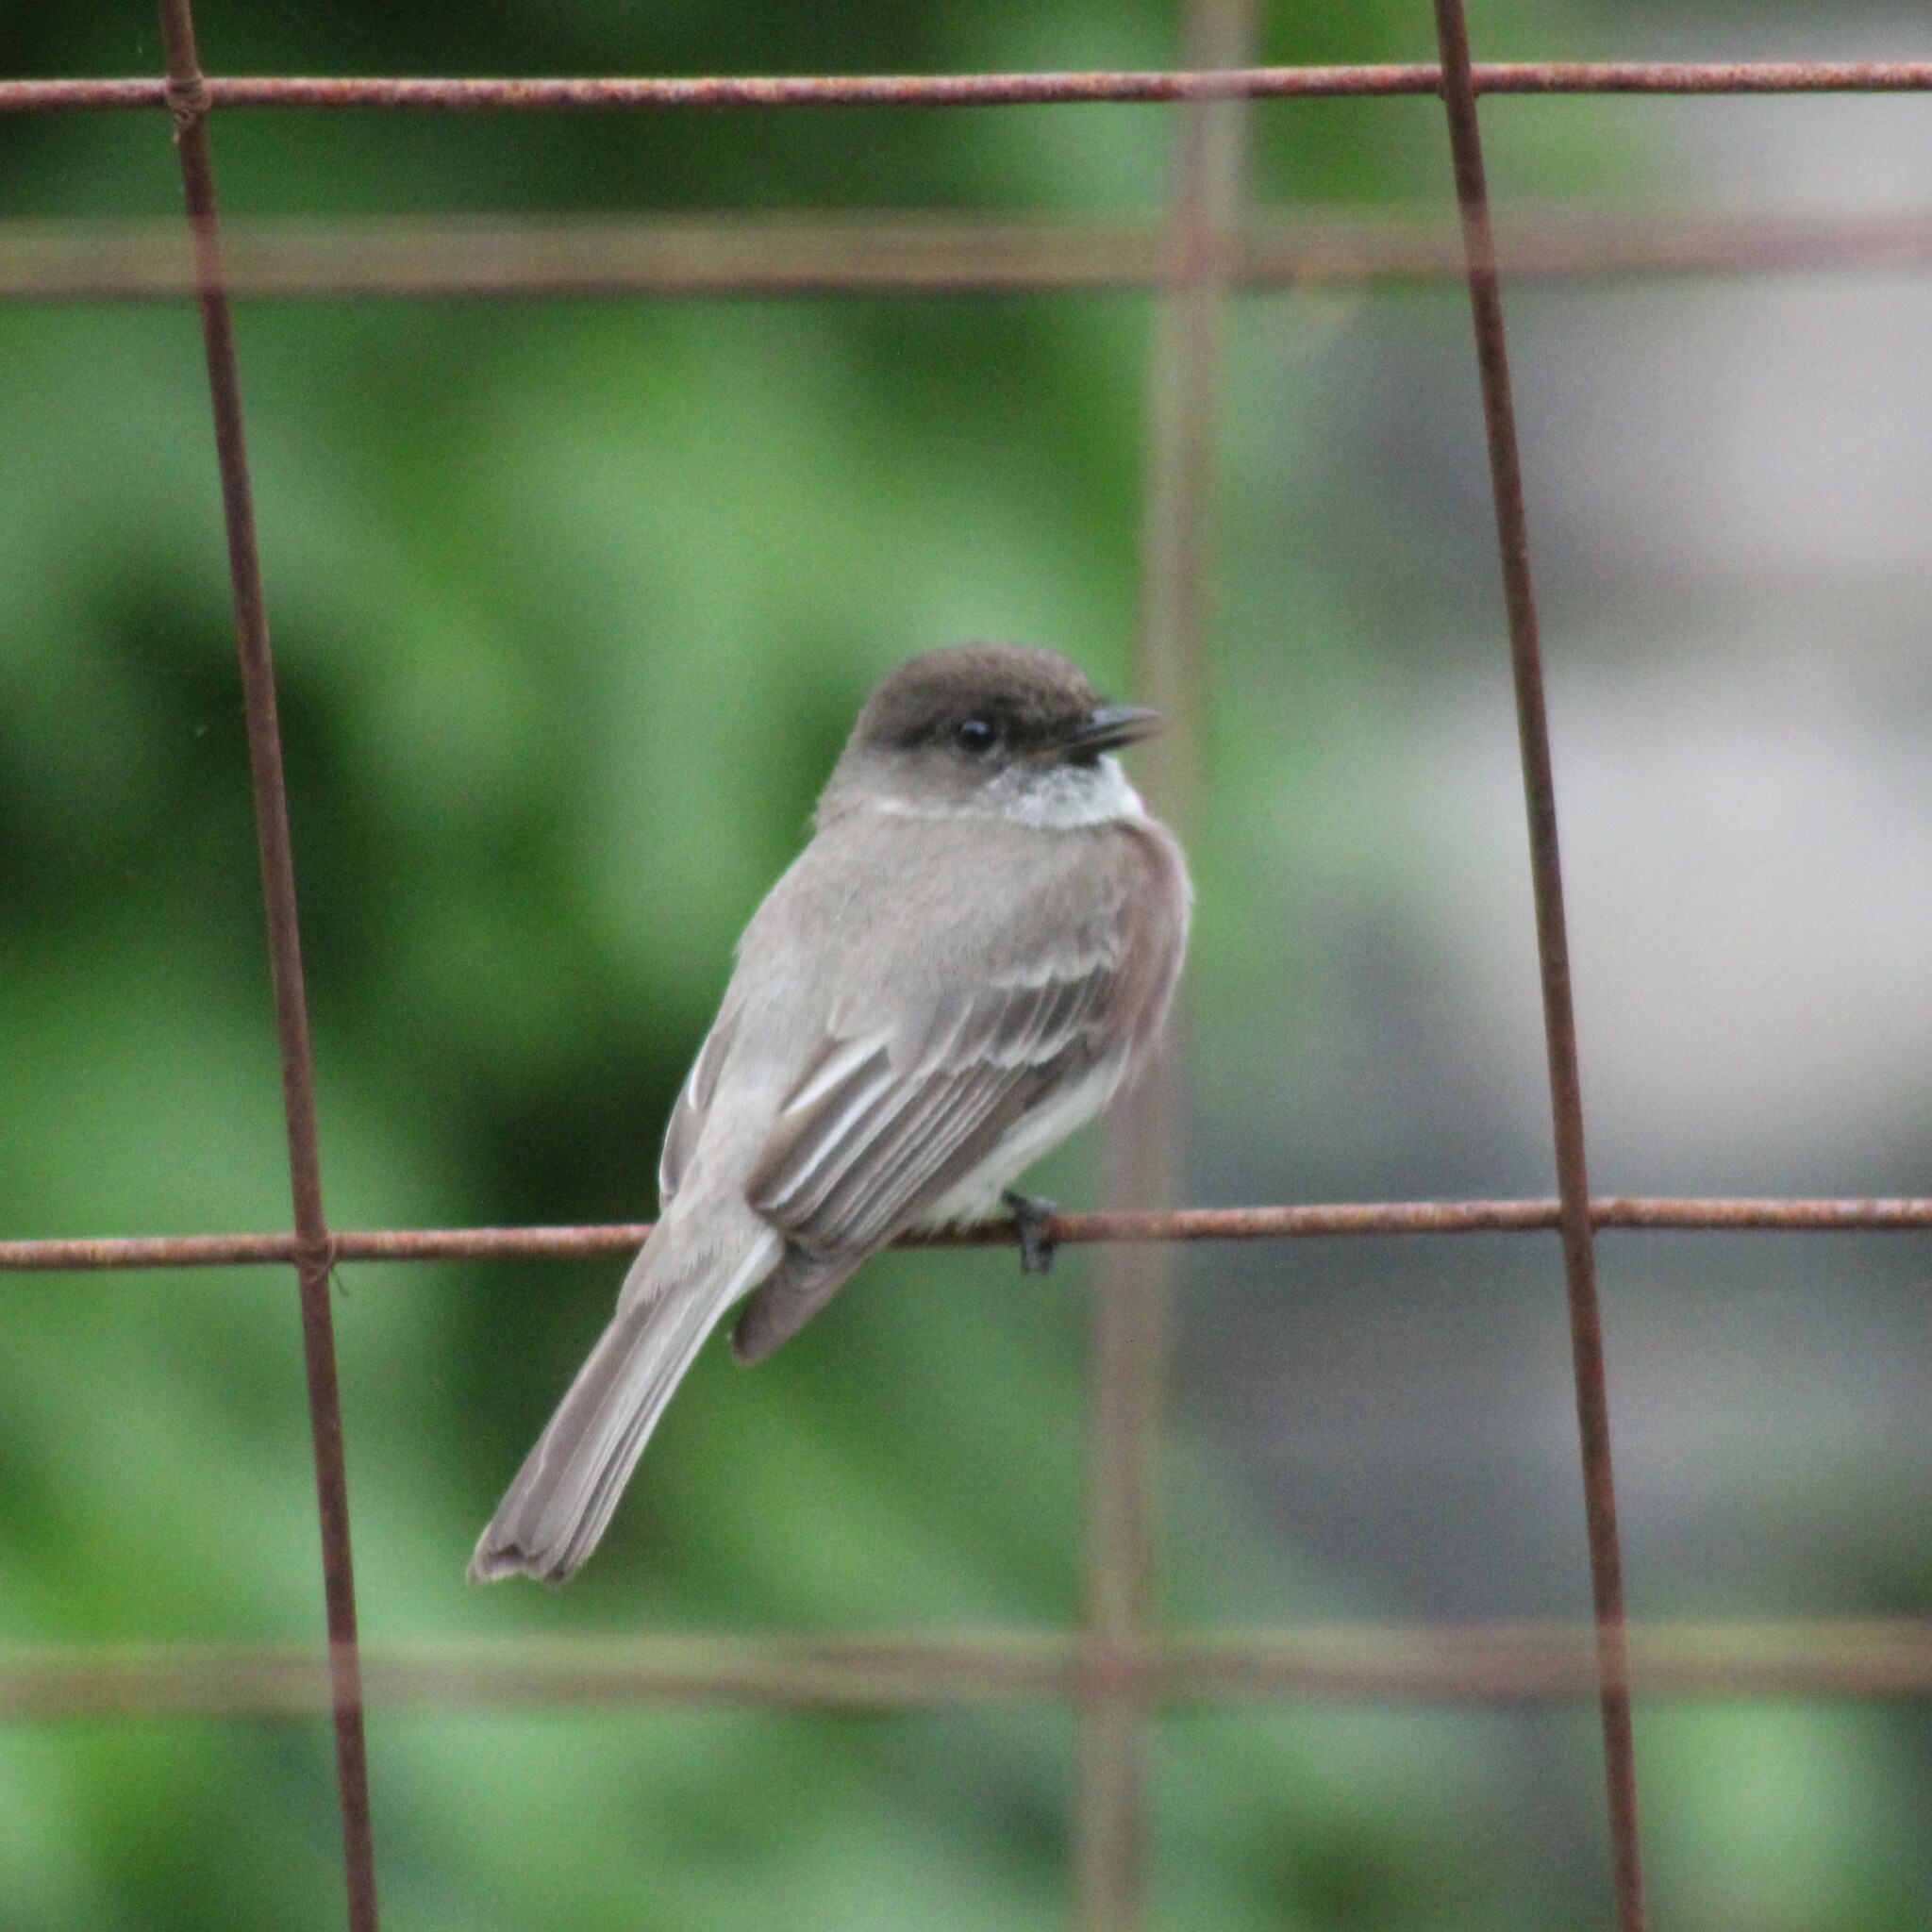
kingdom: Animalia
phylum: Chordata
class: Aves
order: Passeriformes
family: Tyrannidae
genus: Sayornis
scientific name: Sayornis phoebe
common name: Eastern phoebe
